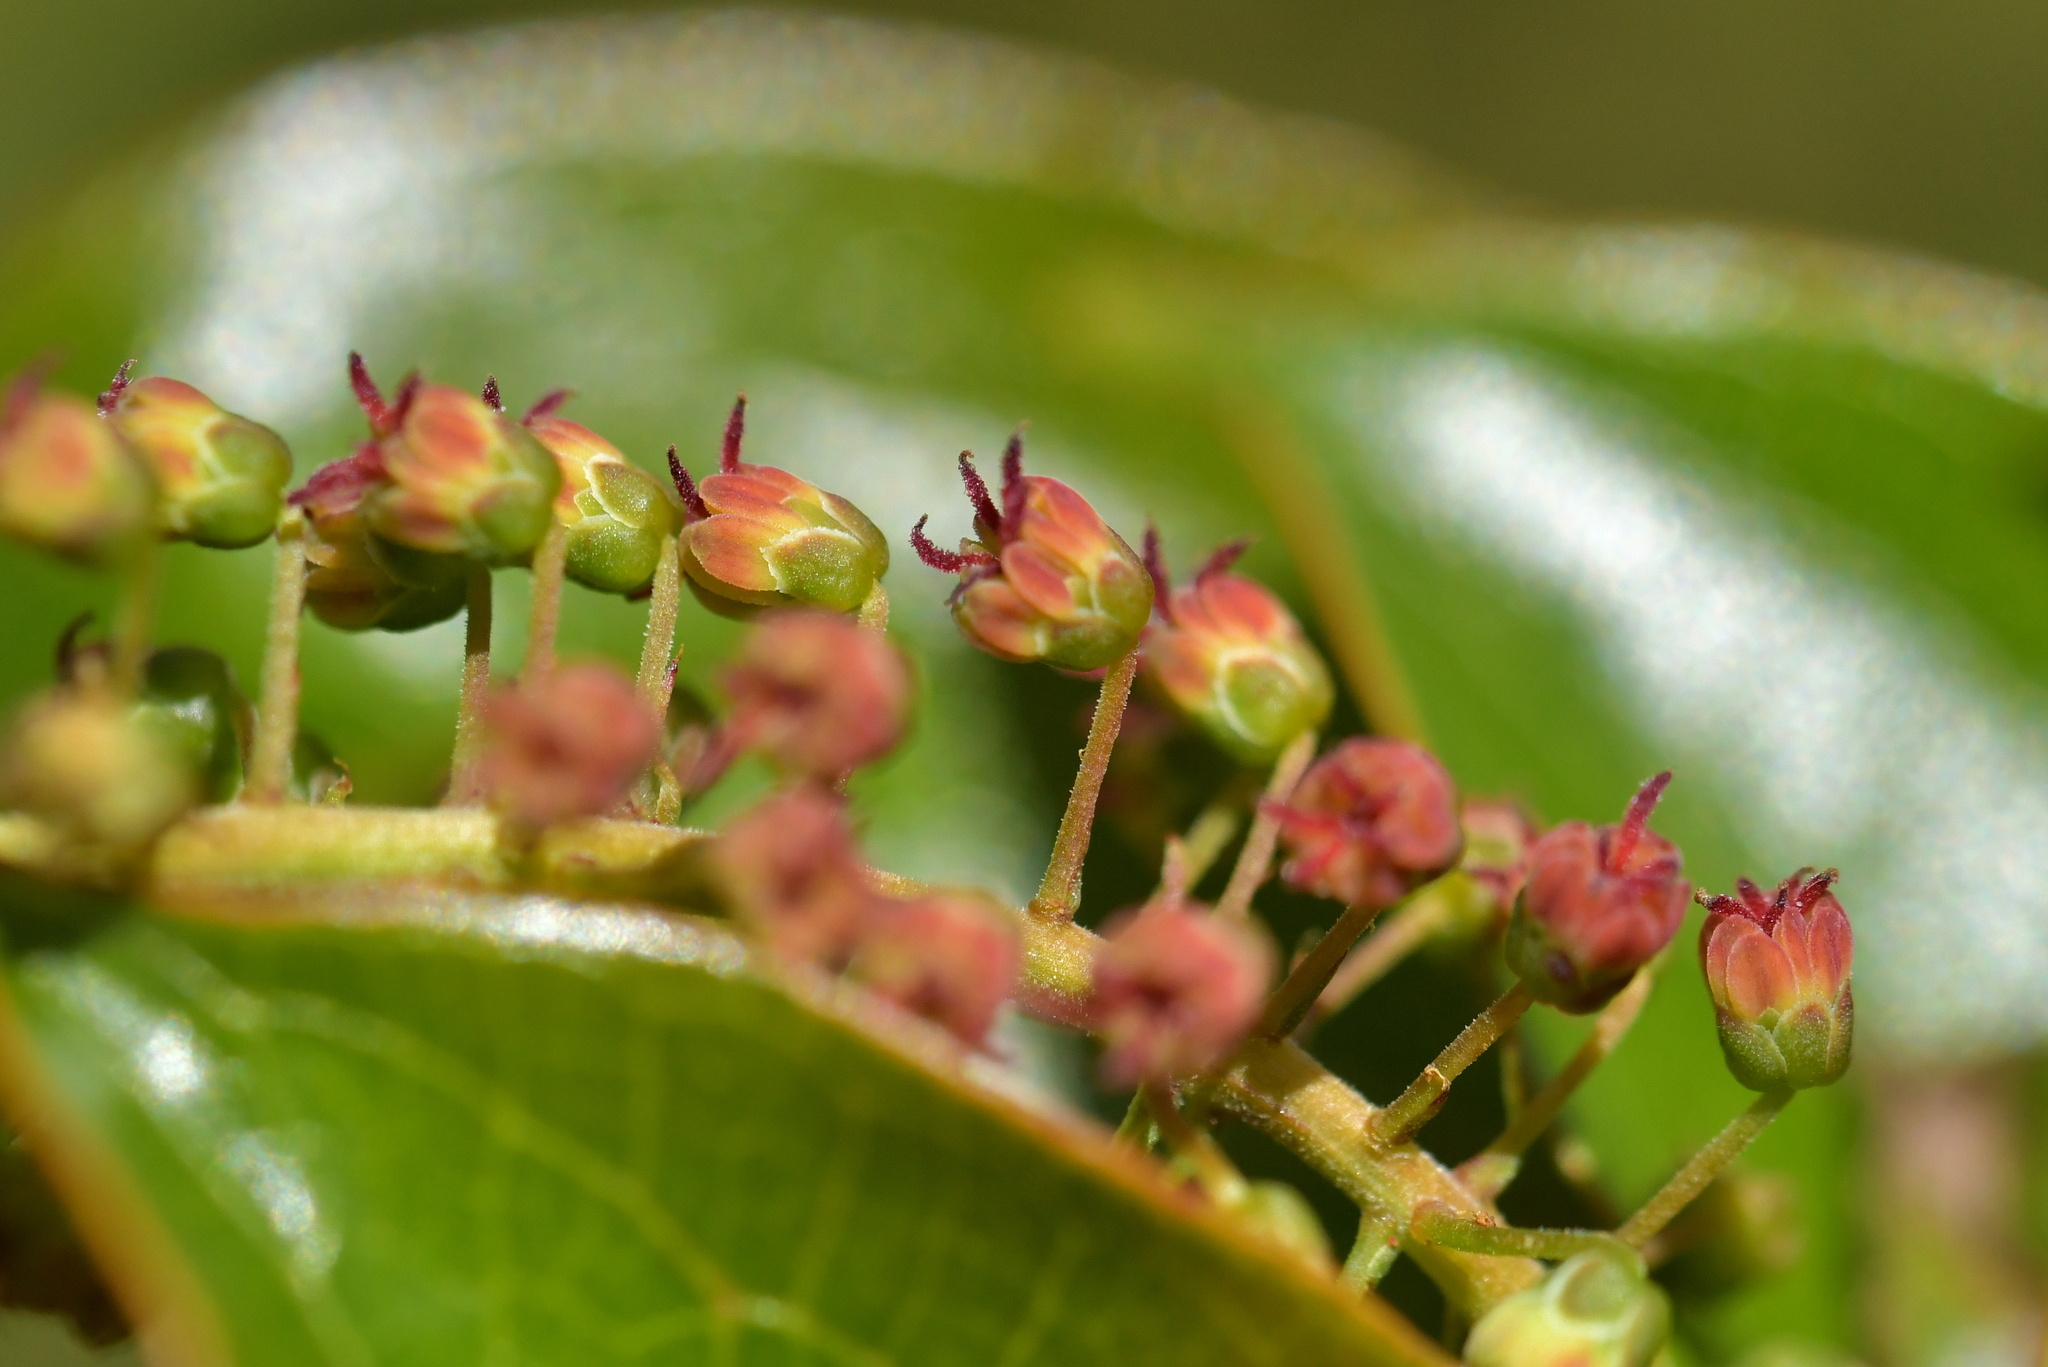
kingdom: Plantae
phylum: Tracheophyta
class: Magnoliopsida
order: Cucurbitales
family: Coriariaceae
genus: Coriaria
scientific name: Coriaria arborea
